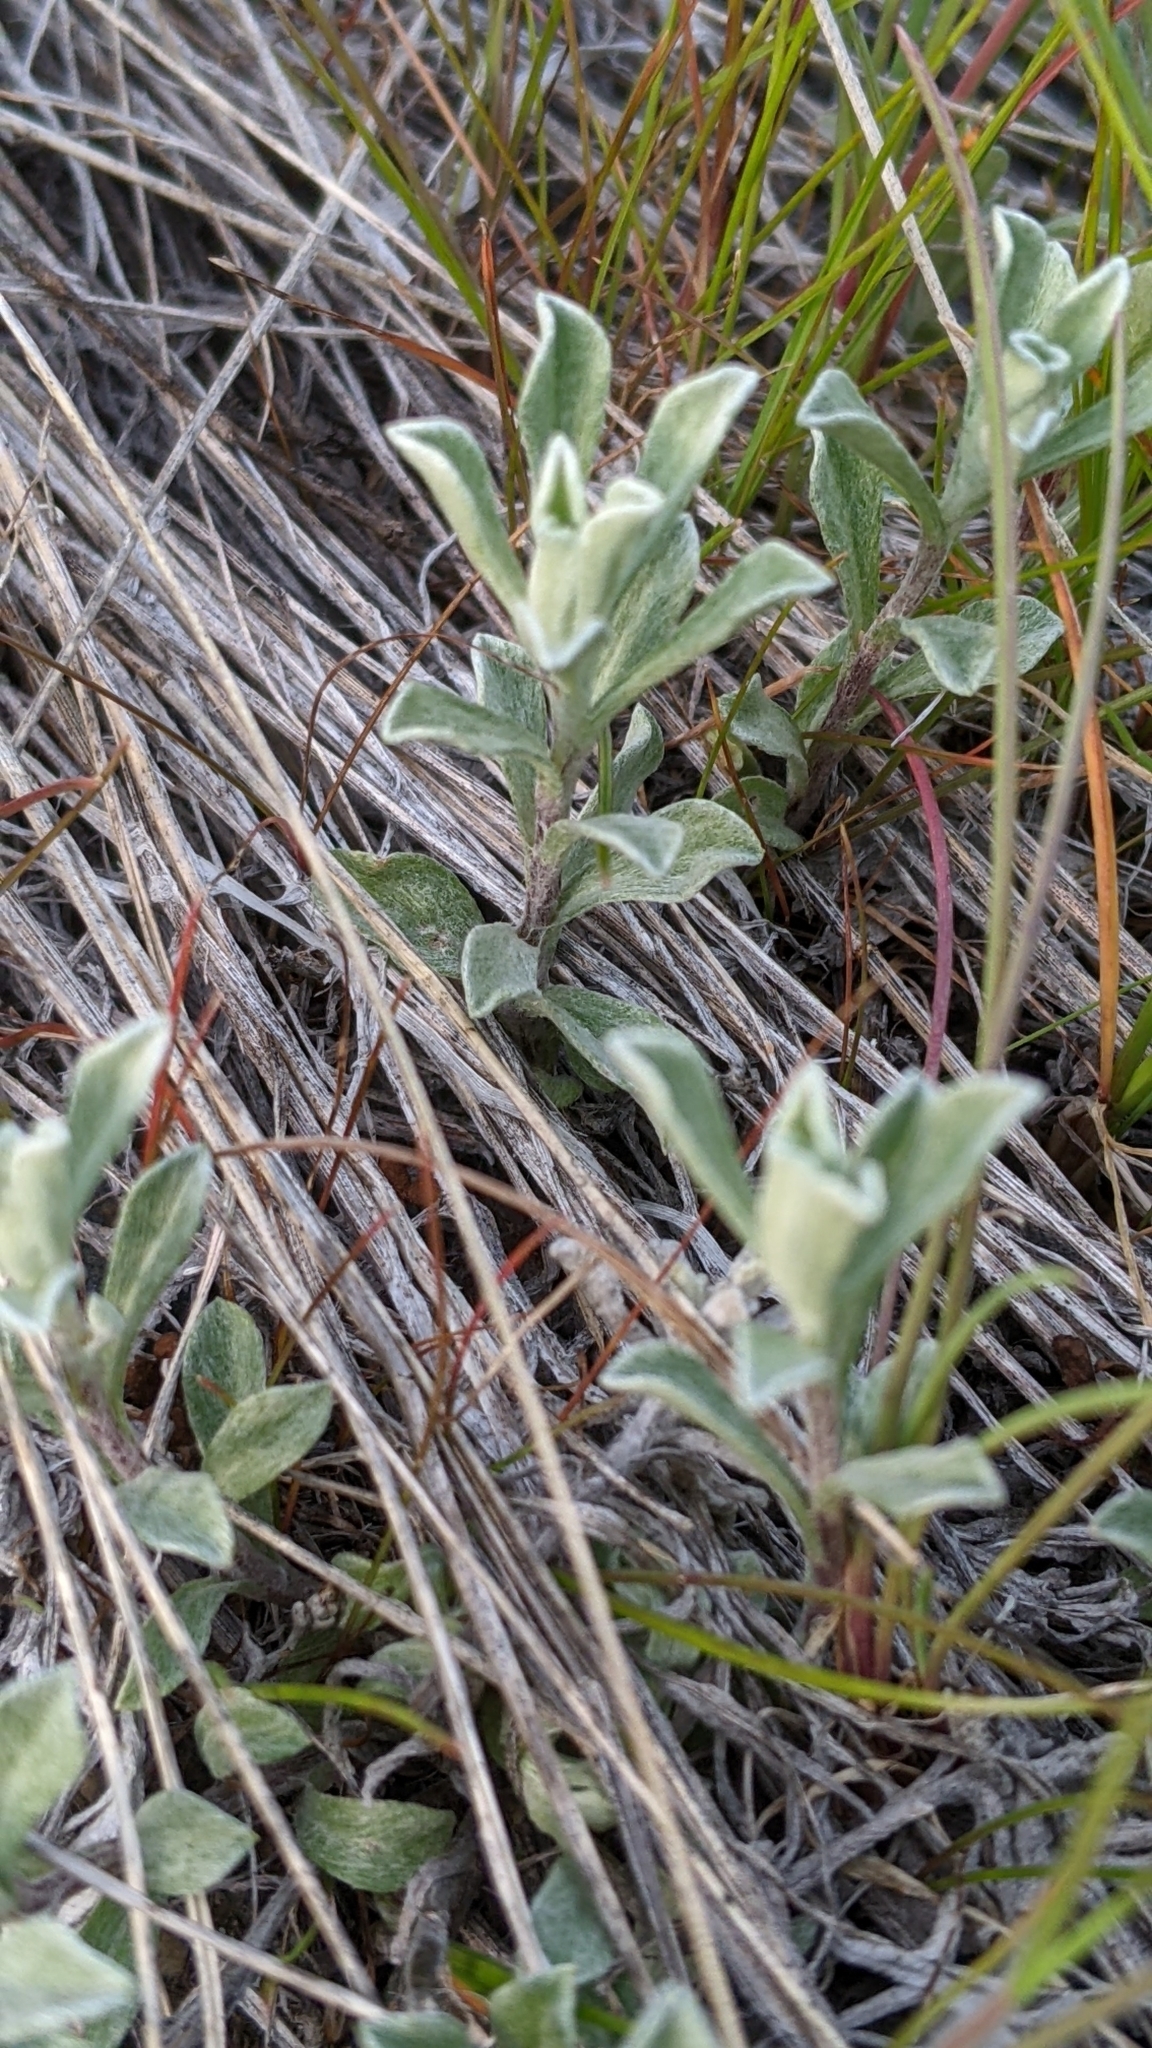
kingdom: Plantae
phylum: Tracheophyta
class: Magnoliopsida
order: Asterales
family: Asteraceae
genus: Antennaria
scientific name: Antennaria umbrinella
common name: Brown pussytoes
